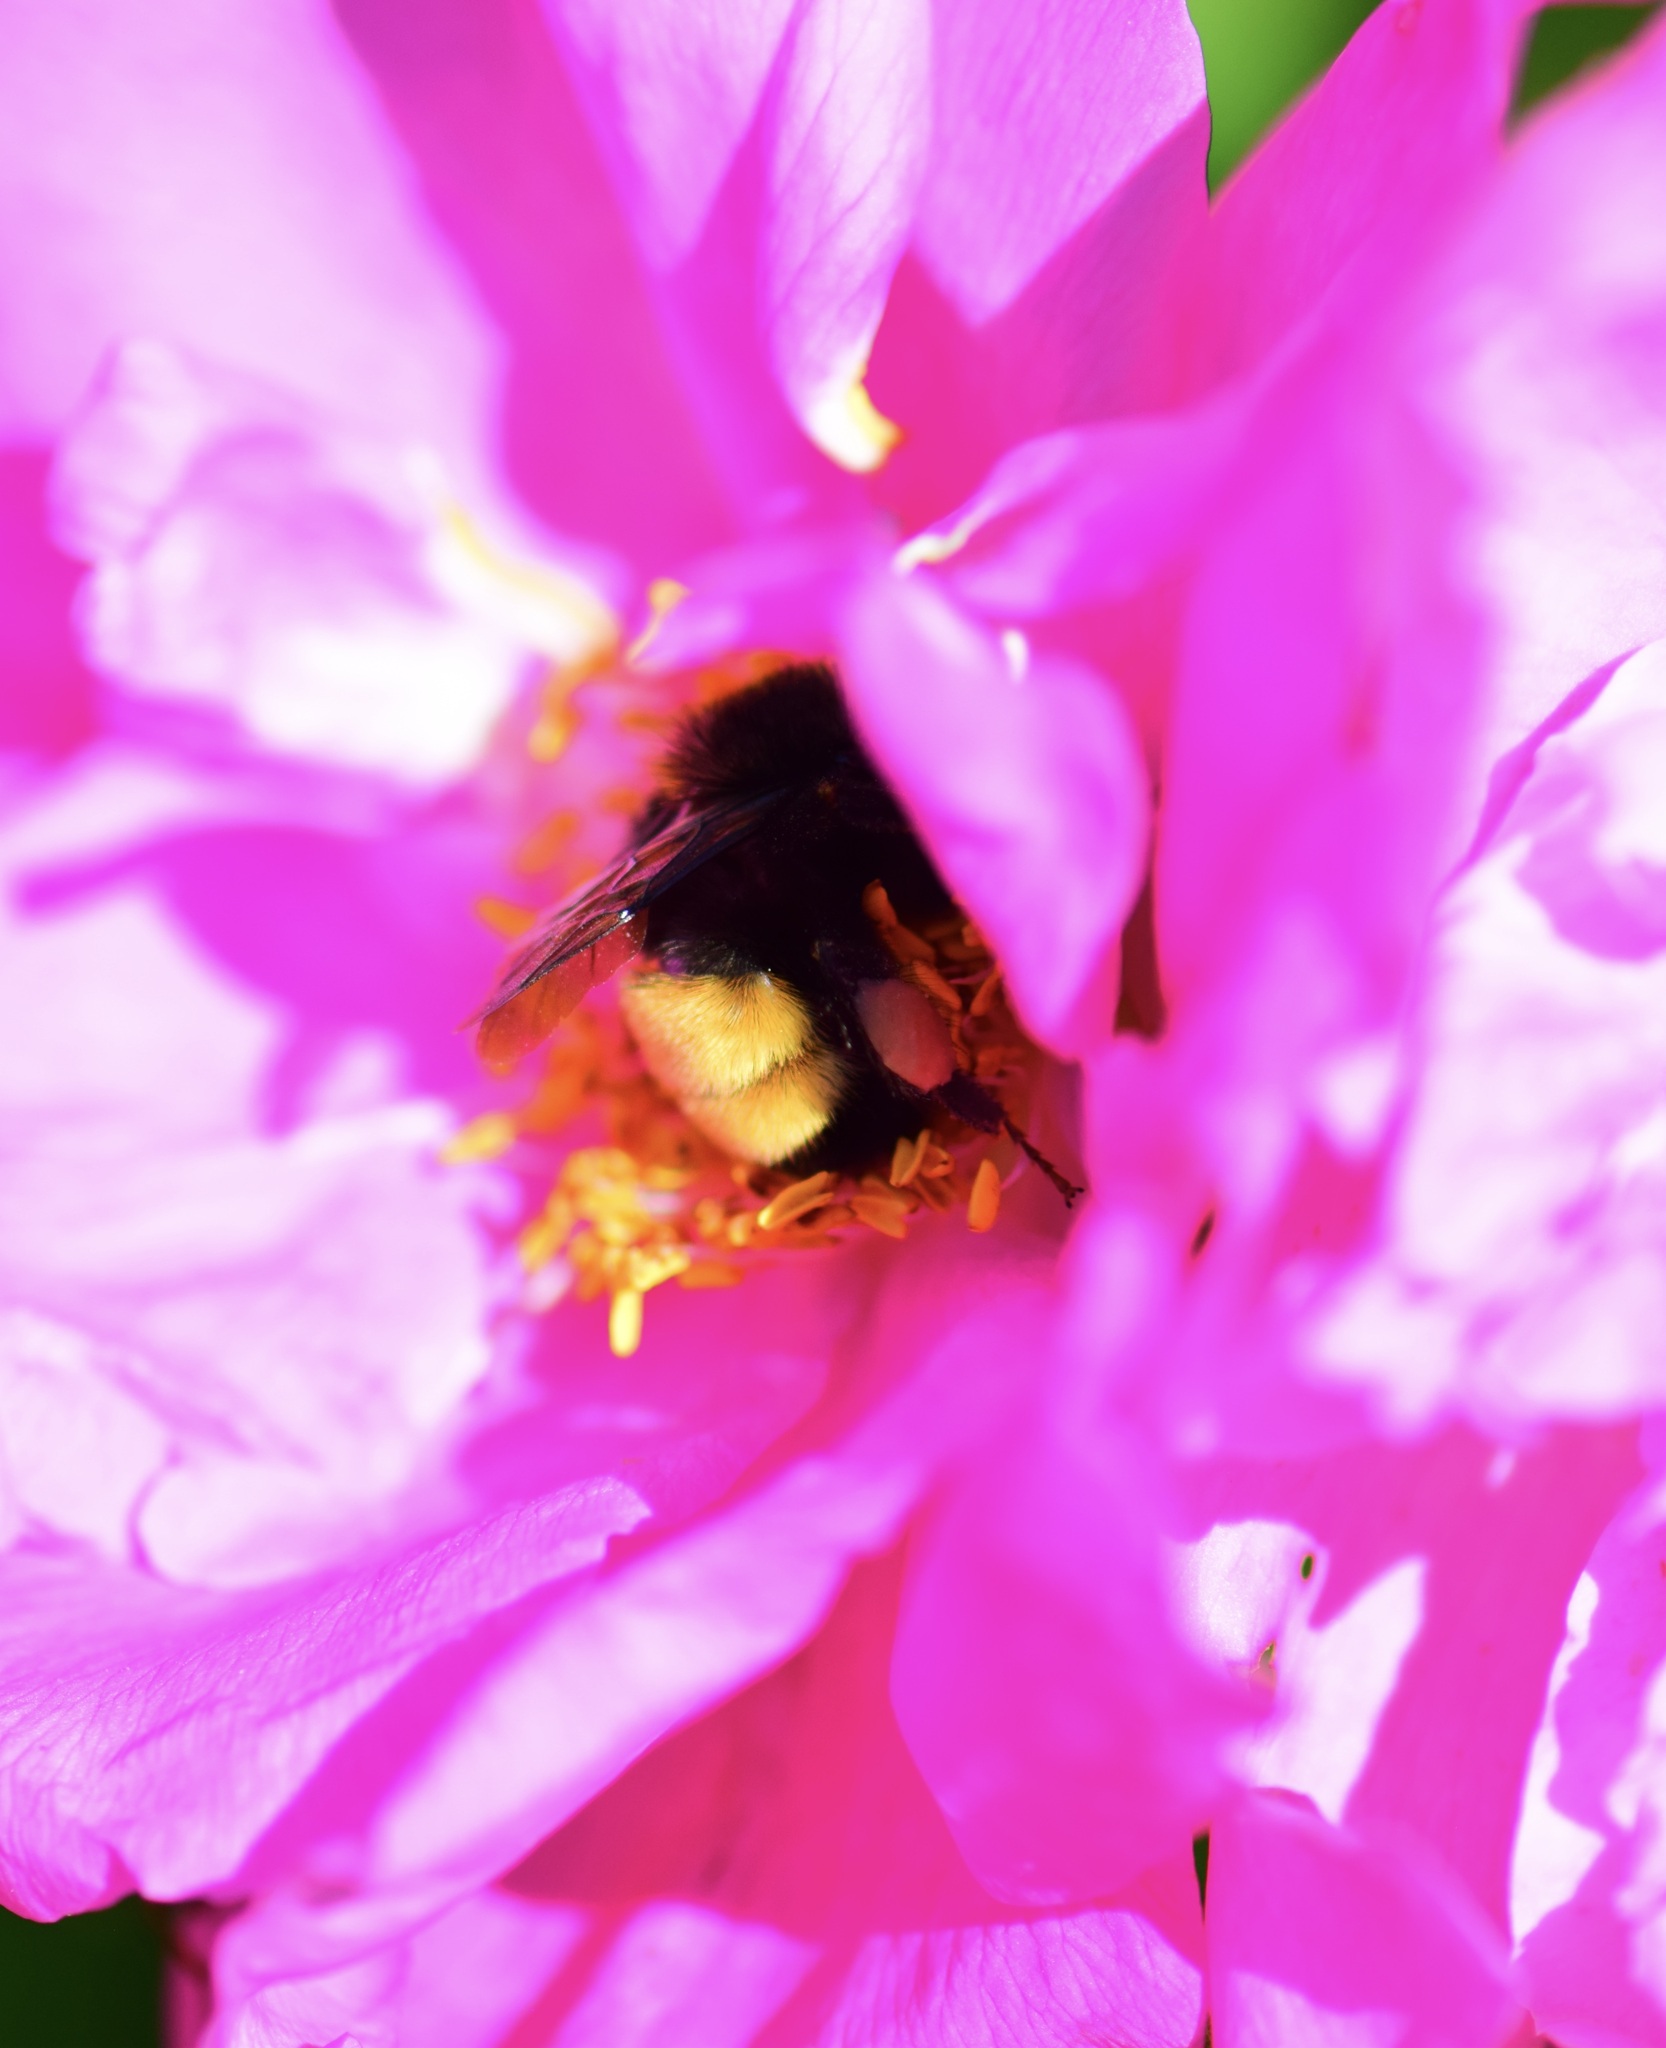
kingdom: Animalia
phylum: Arthropoda
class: Insecta
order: Hymenoptera
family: Apidae
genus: Bombus
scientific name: Bombus terricola
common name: Yellow-banded bumble bee
